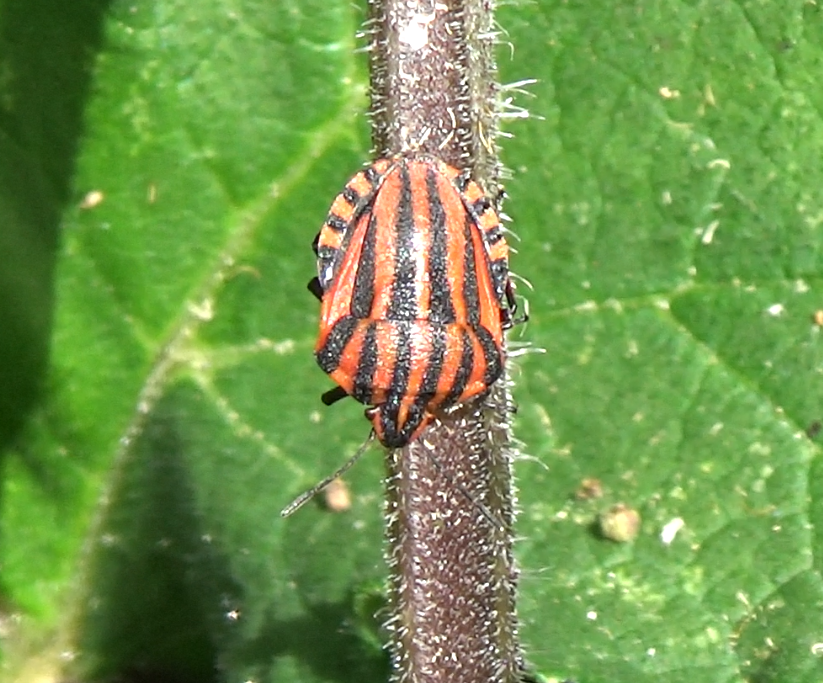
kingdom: Animalia
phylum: Arthropoda
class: Insecta
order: Hemiptera
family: Pentatomidae
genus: Graphosoma
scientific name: Graphosoma italicum
